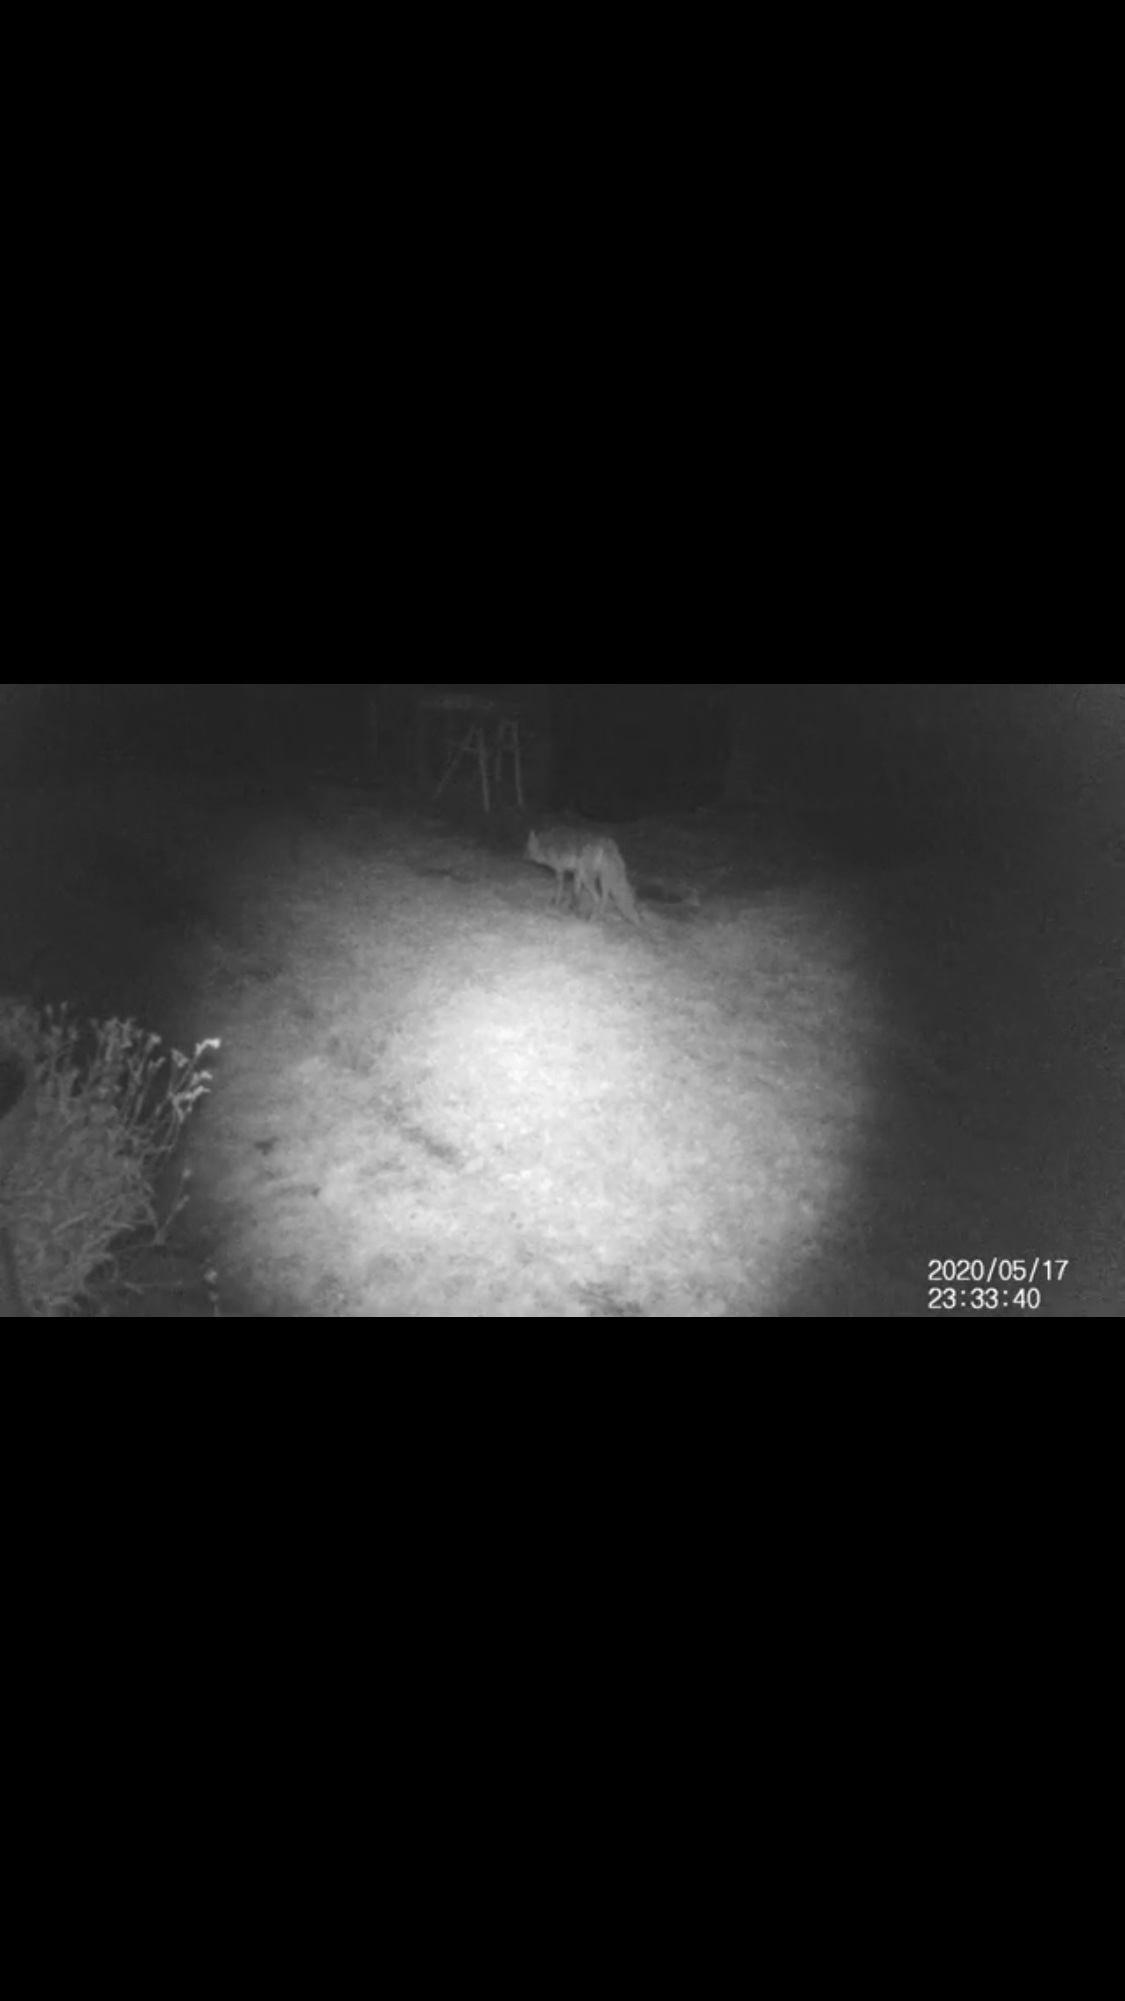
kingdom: Animalia
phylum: Chordata
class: Mammalia
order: Carnivora
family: Canidae
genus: Vulpes
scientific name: Vulpes vulpes
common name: Red fox
